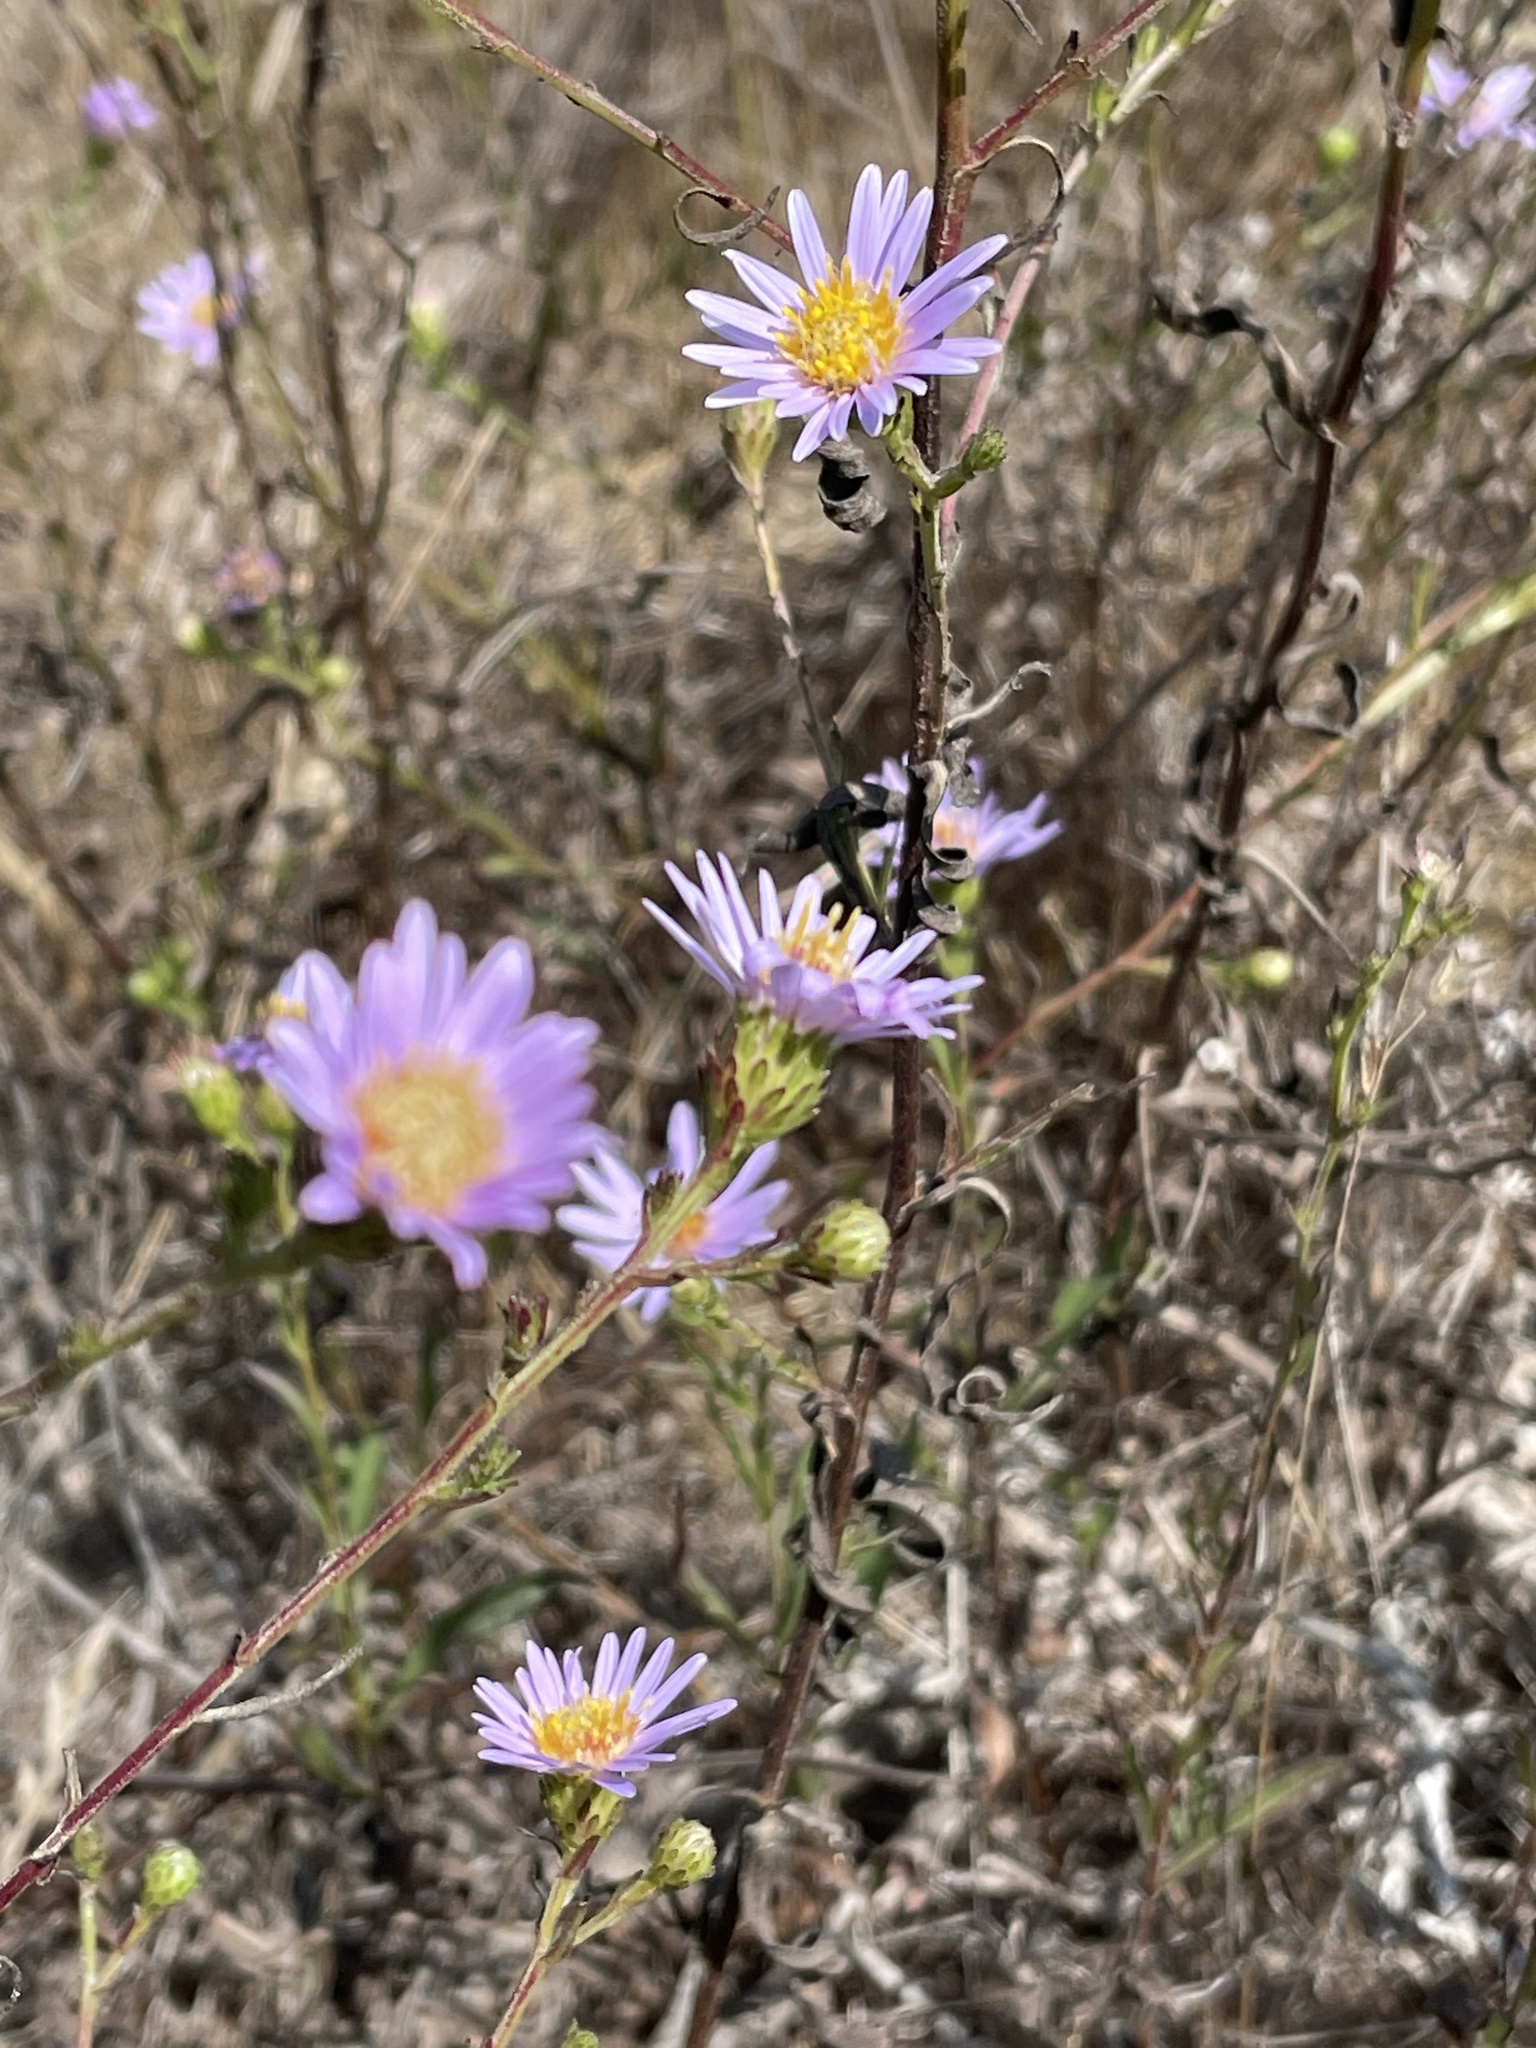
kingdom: Plantae
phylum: Tracheophyta
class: Magnoliopsida
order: Asterales
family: Asteraceae
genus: Symphyotrichum
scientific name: Symphyotrichum chilense
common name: Pacific aster
